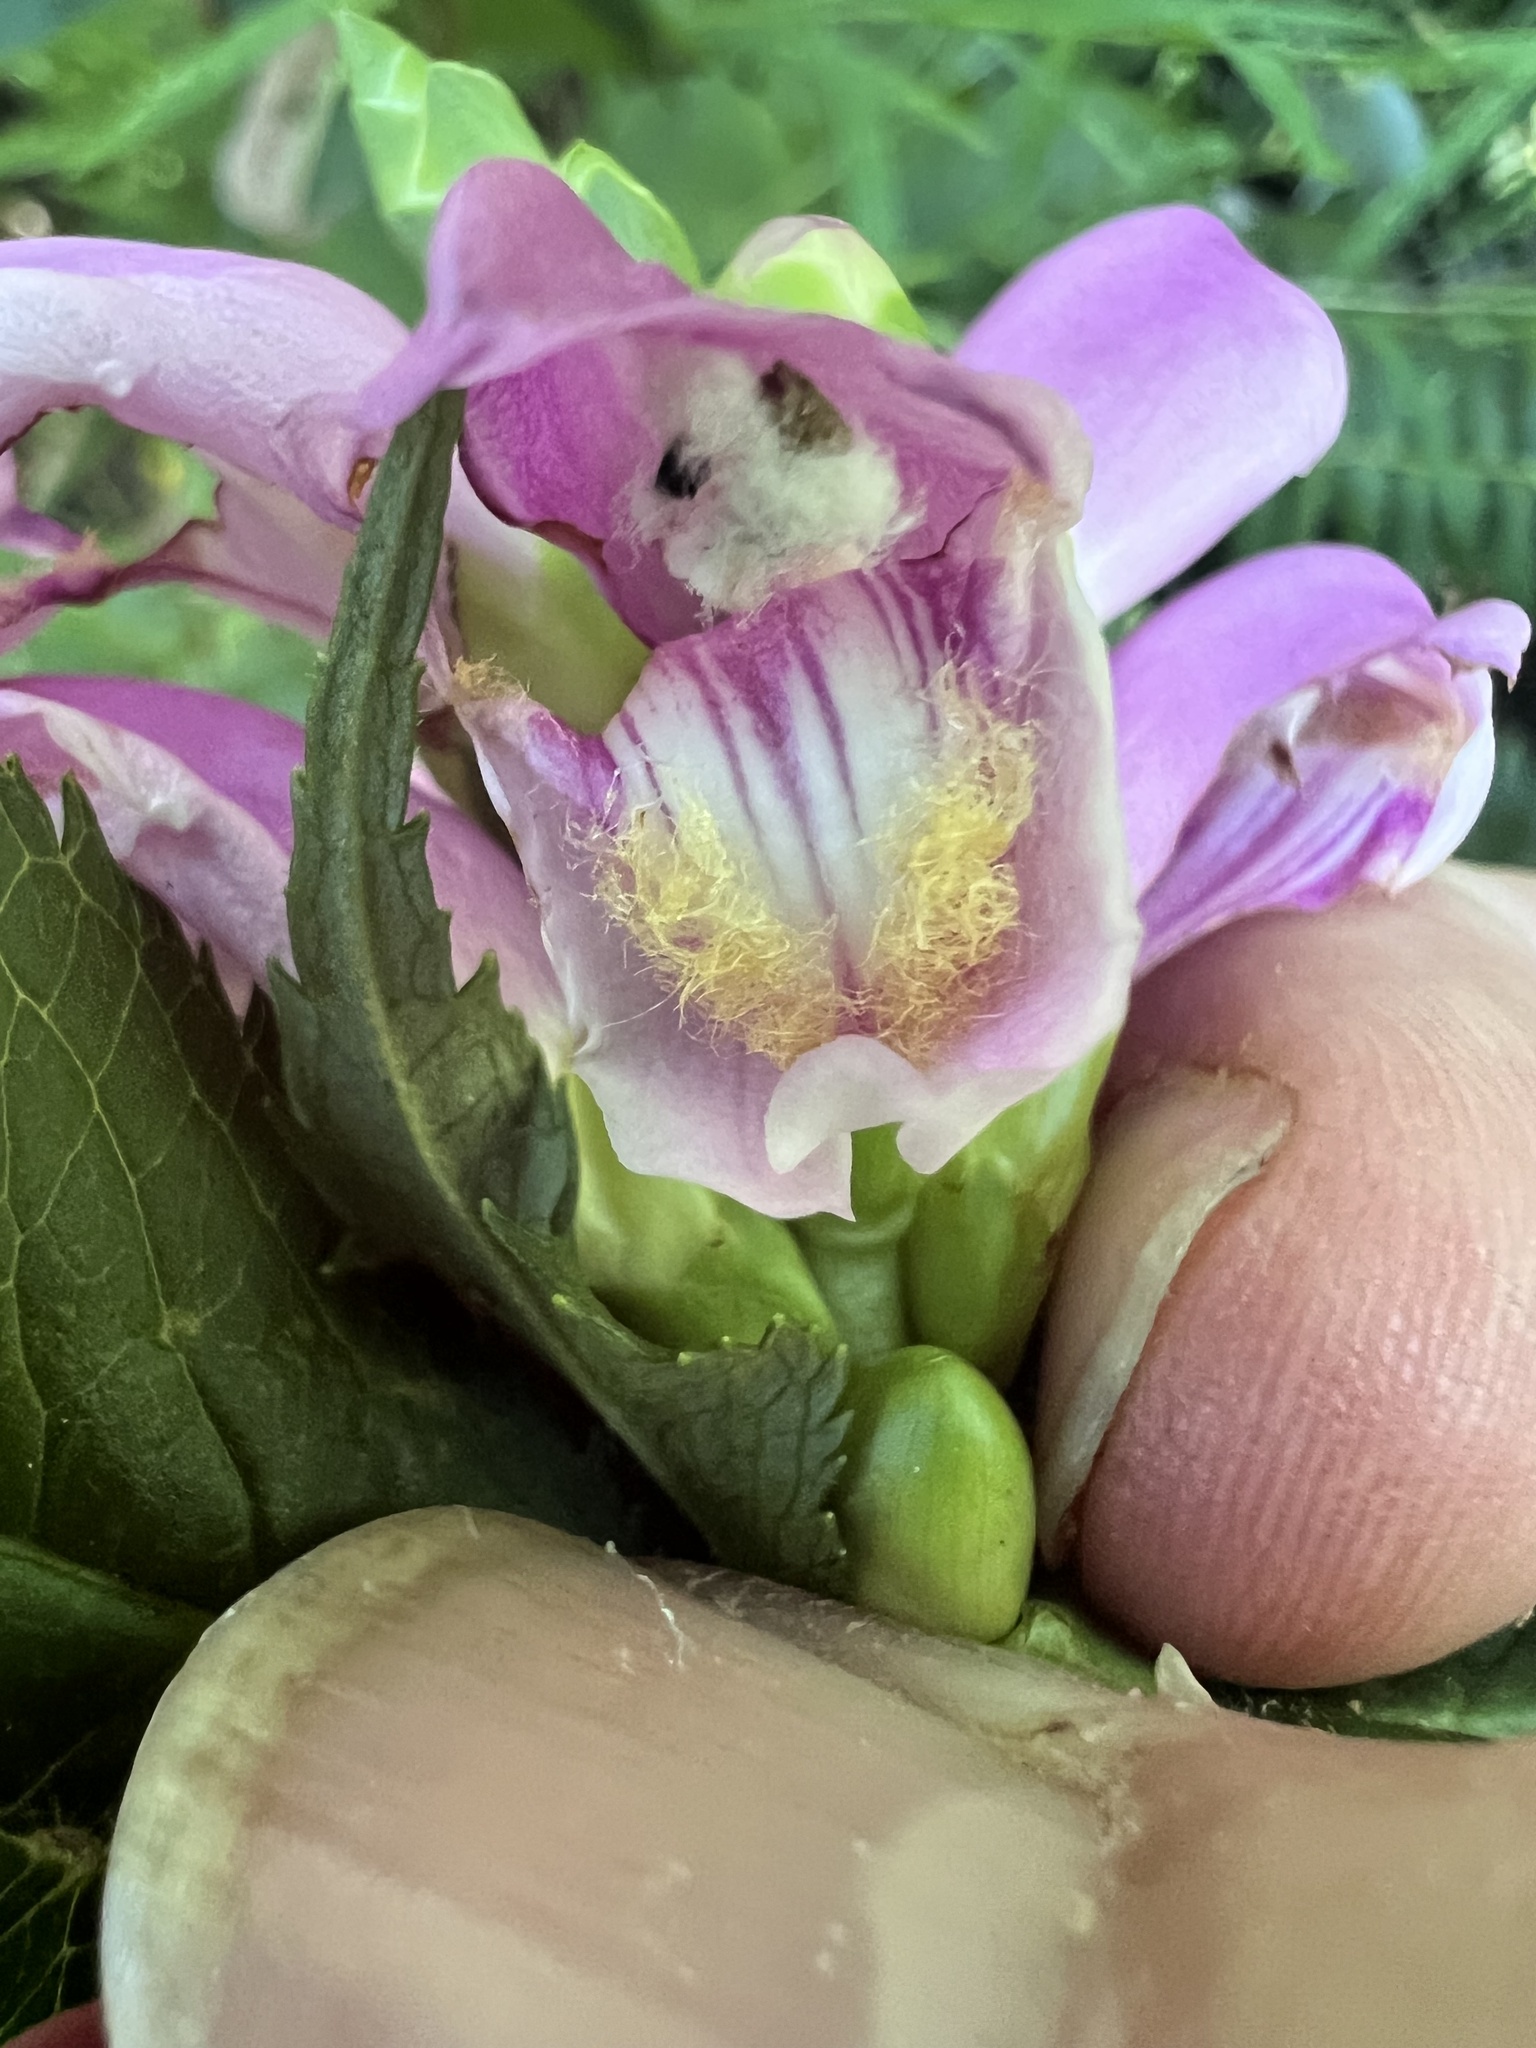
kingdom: Plantae
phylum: Tracheophyta
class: Magnoliopsida
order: Lamiales
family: Plantaginaceae
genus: Chelone
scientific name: Chelone lyonii
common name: Pink turtlehead
